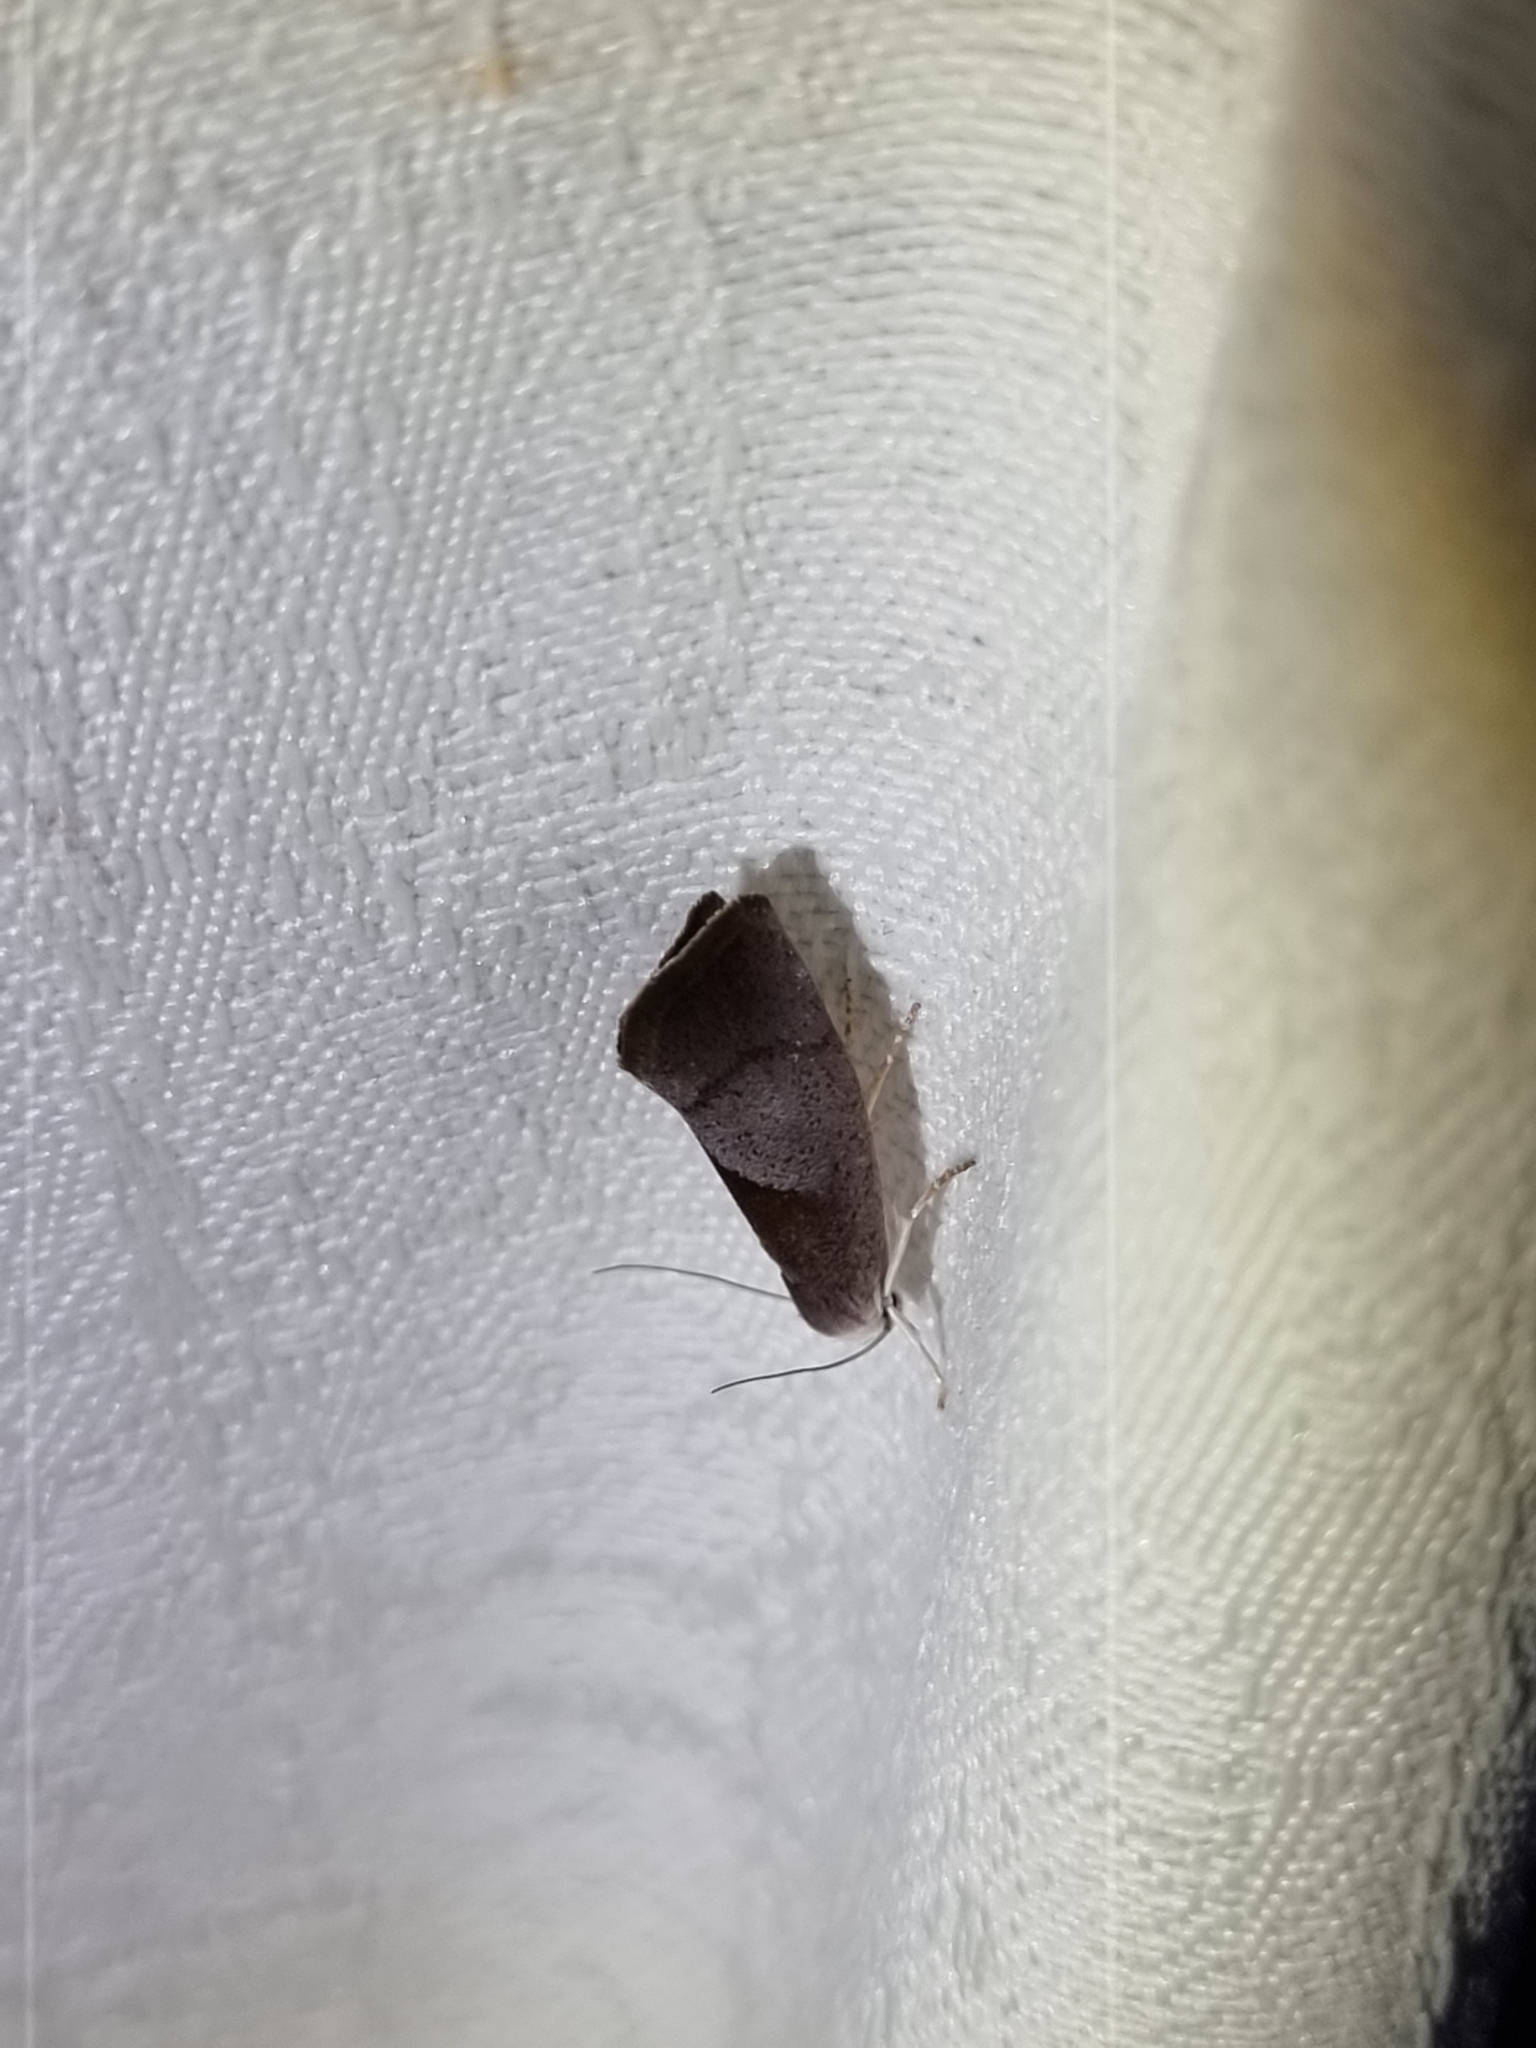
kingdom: Animalia
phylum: Arthropoda
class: Insecta
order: Lepidoptera
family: Xyloryctidae
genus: Xylorycta
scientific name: Xylorycta apheles
